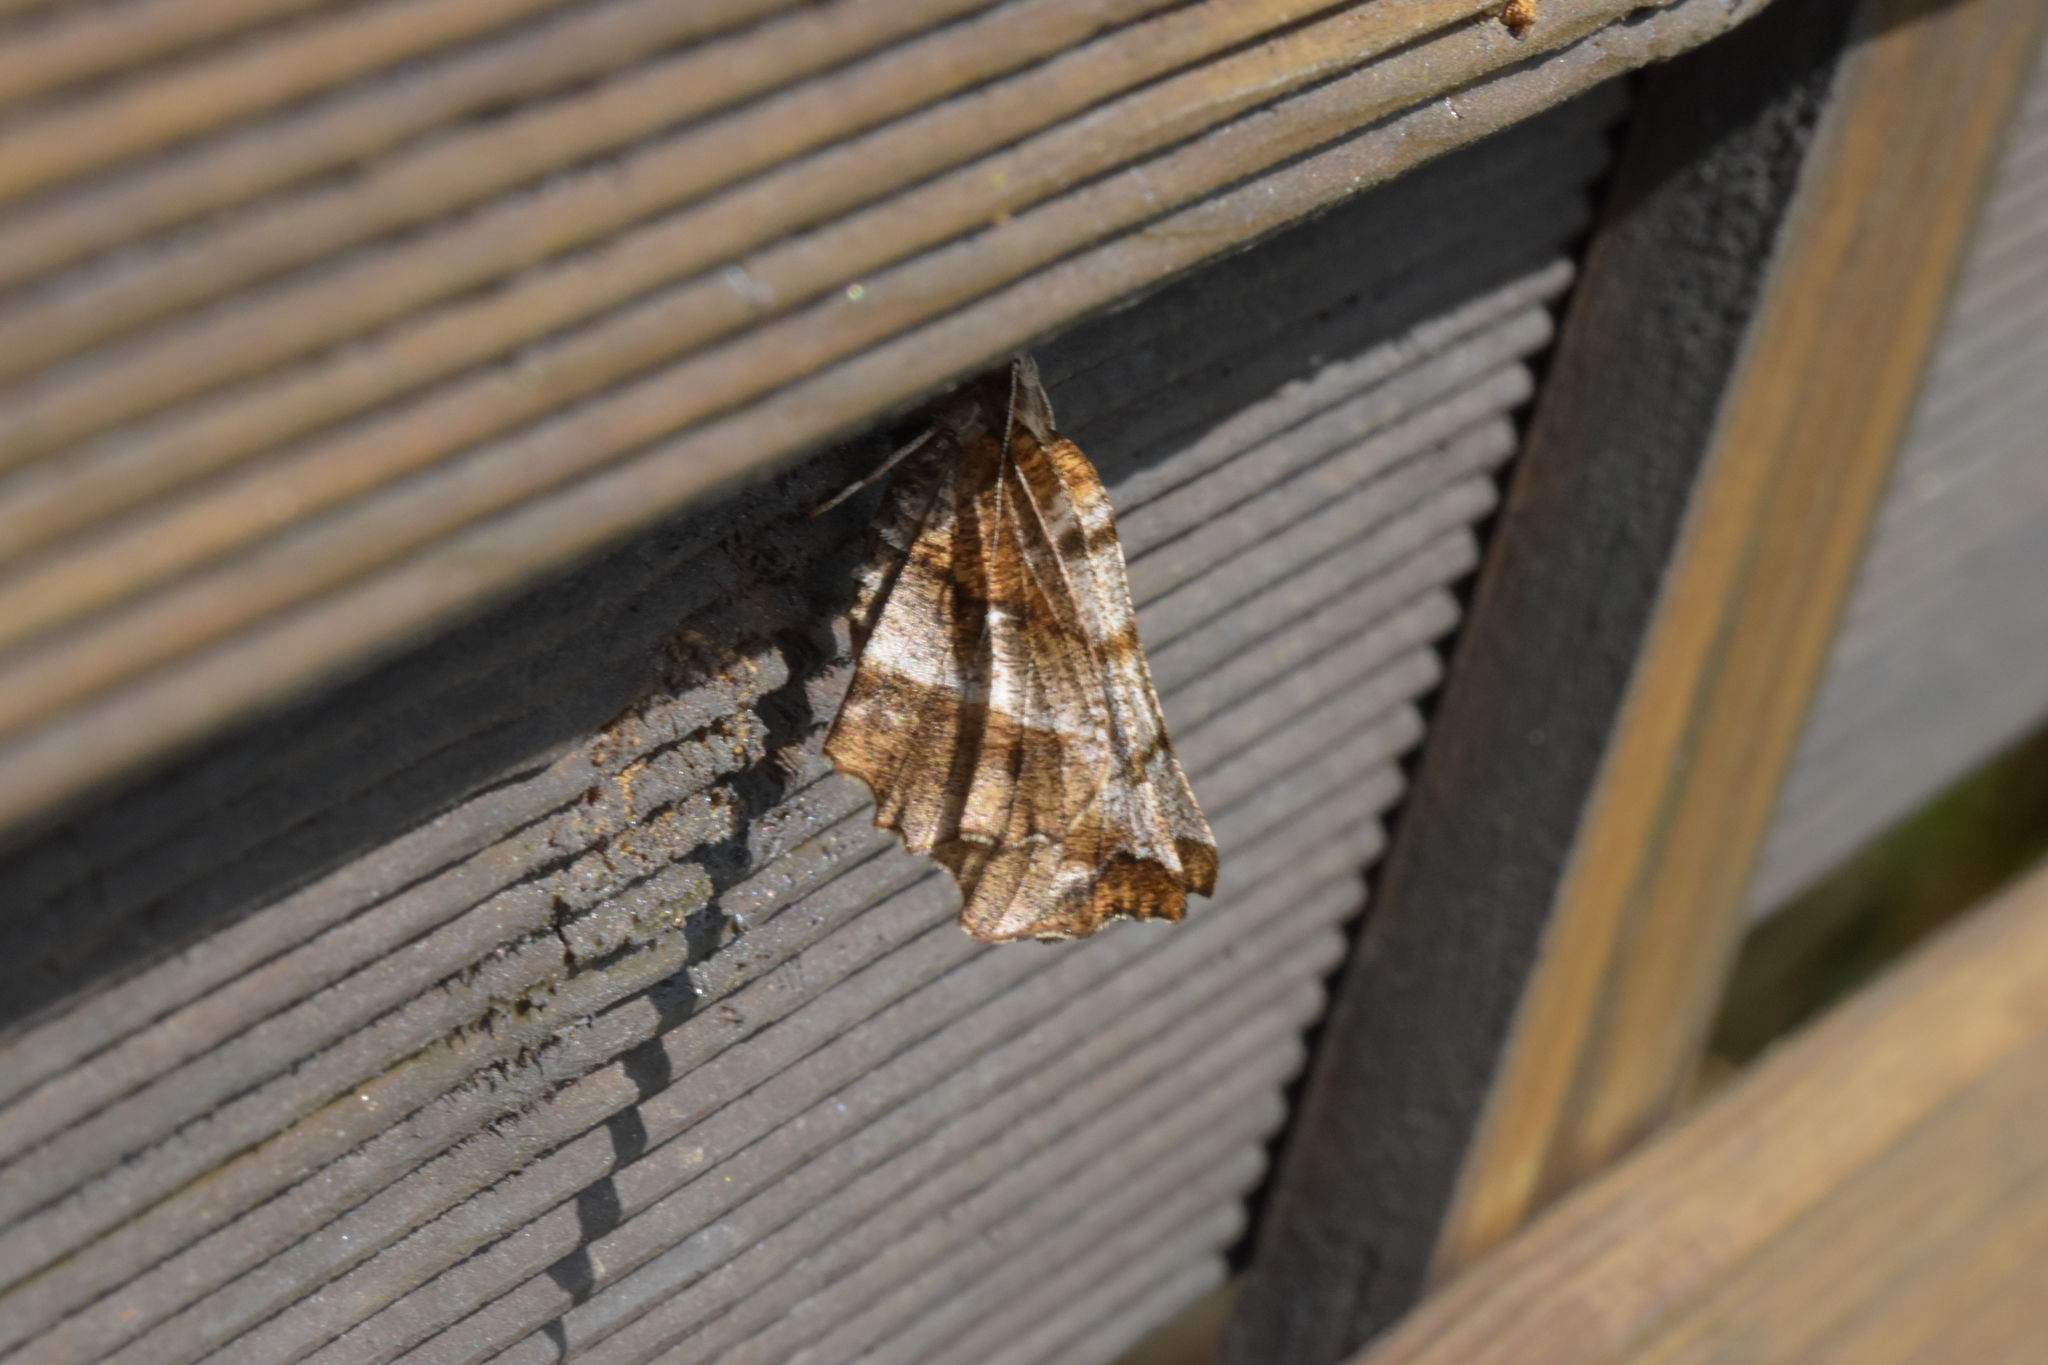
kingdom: Animalia
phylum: Arthropoda
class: Insecta
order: Lepidoptera
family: Geometridae
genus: Selenia
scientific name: Selenia dentaria
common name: Early thorn
